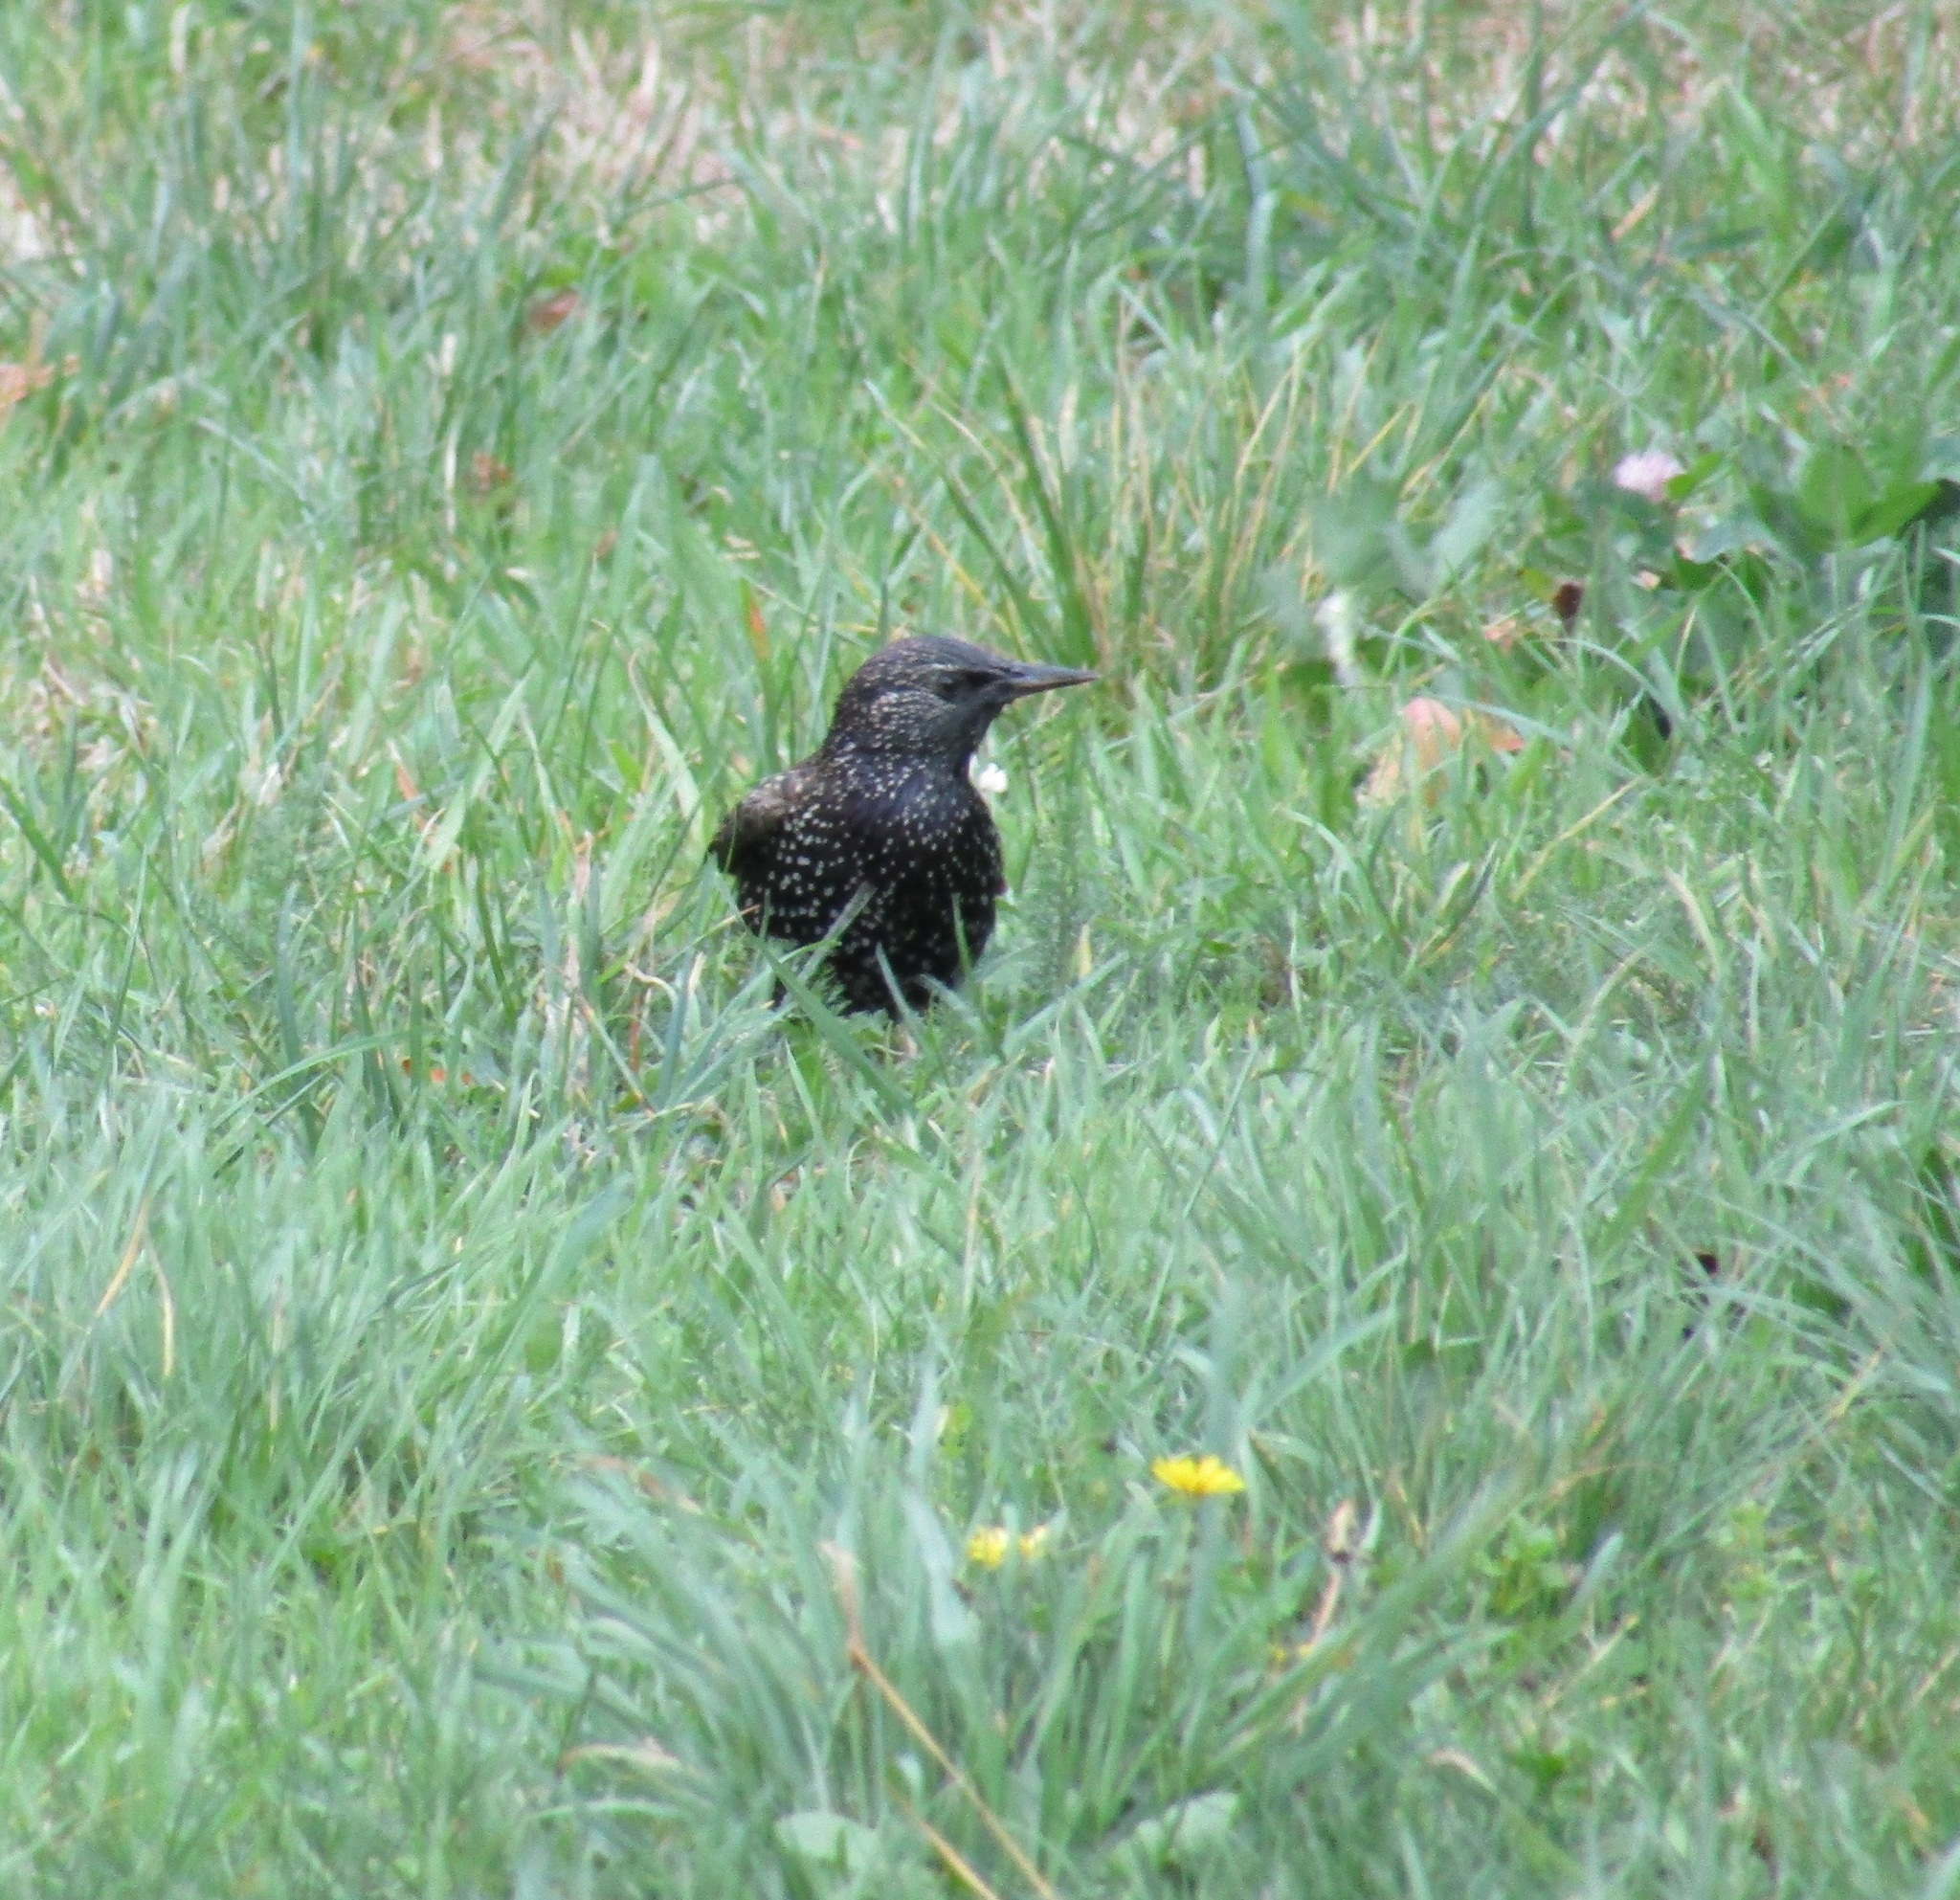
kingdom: Animalia
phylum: Chordata
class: Aves
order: Passeriformes
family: Sturnidae
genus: Sturnus
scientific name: Sturnus vulgaris
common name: Common starling
